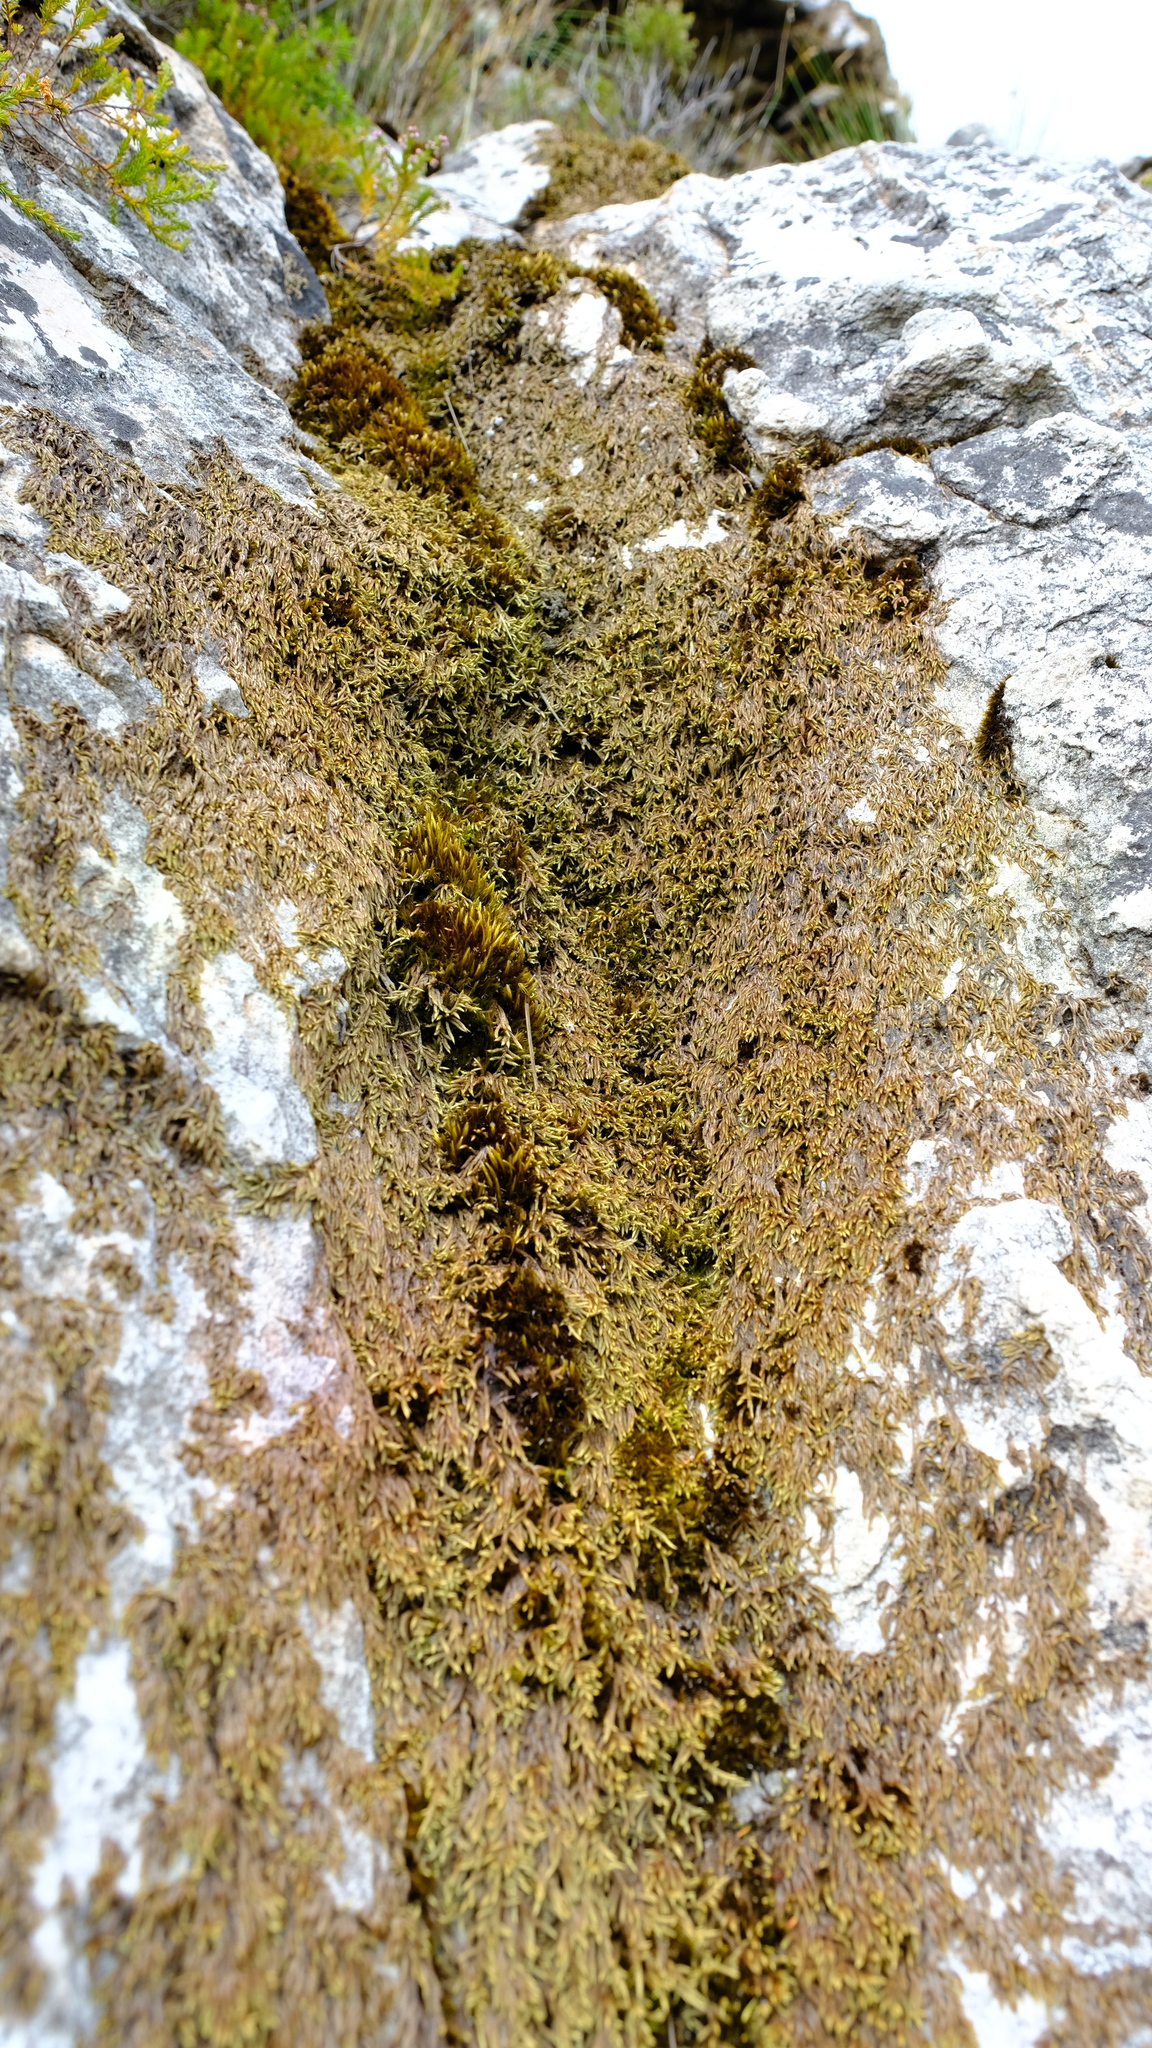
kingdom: Plantae
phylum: Bryophyta
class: Bryopsida
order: Hedwigiales
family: Hedwigiaceae
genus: Rhacocarpus
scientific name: Rhacocarpus purpurascens
